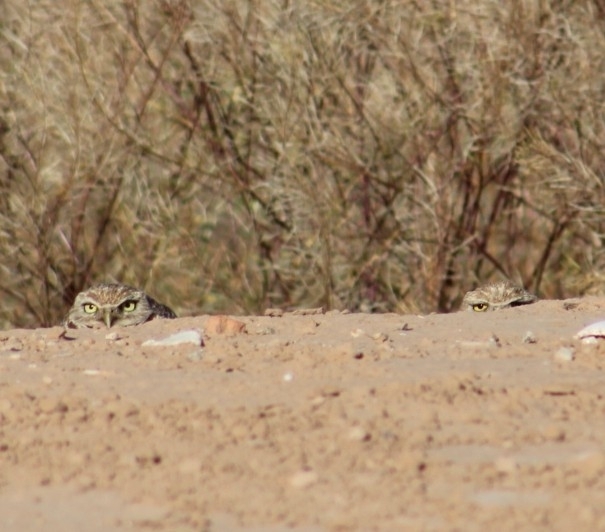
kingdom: Animalia
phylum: Chordata
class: Aves
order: Strigiformes
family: Strigidae
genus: Athene
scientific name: Athene cunicularia
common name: Burrowing owl
